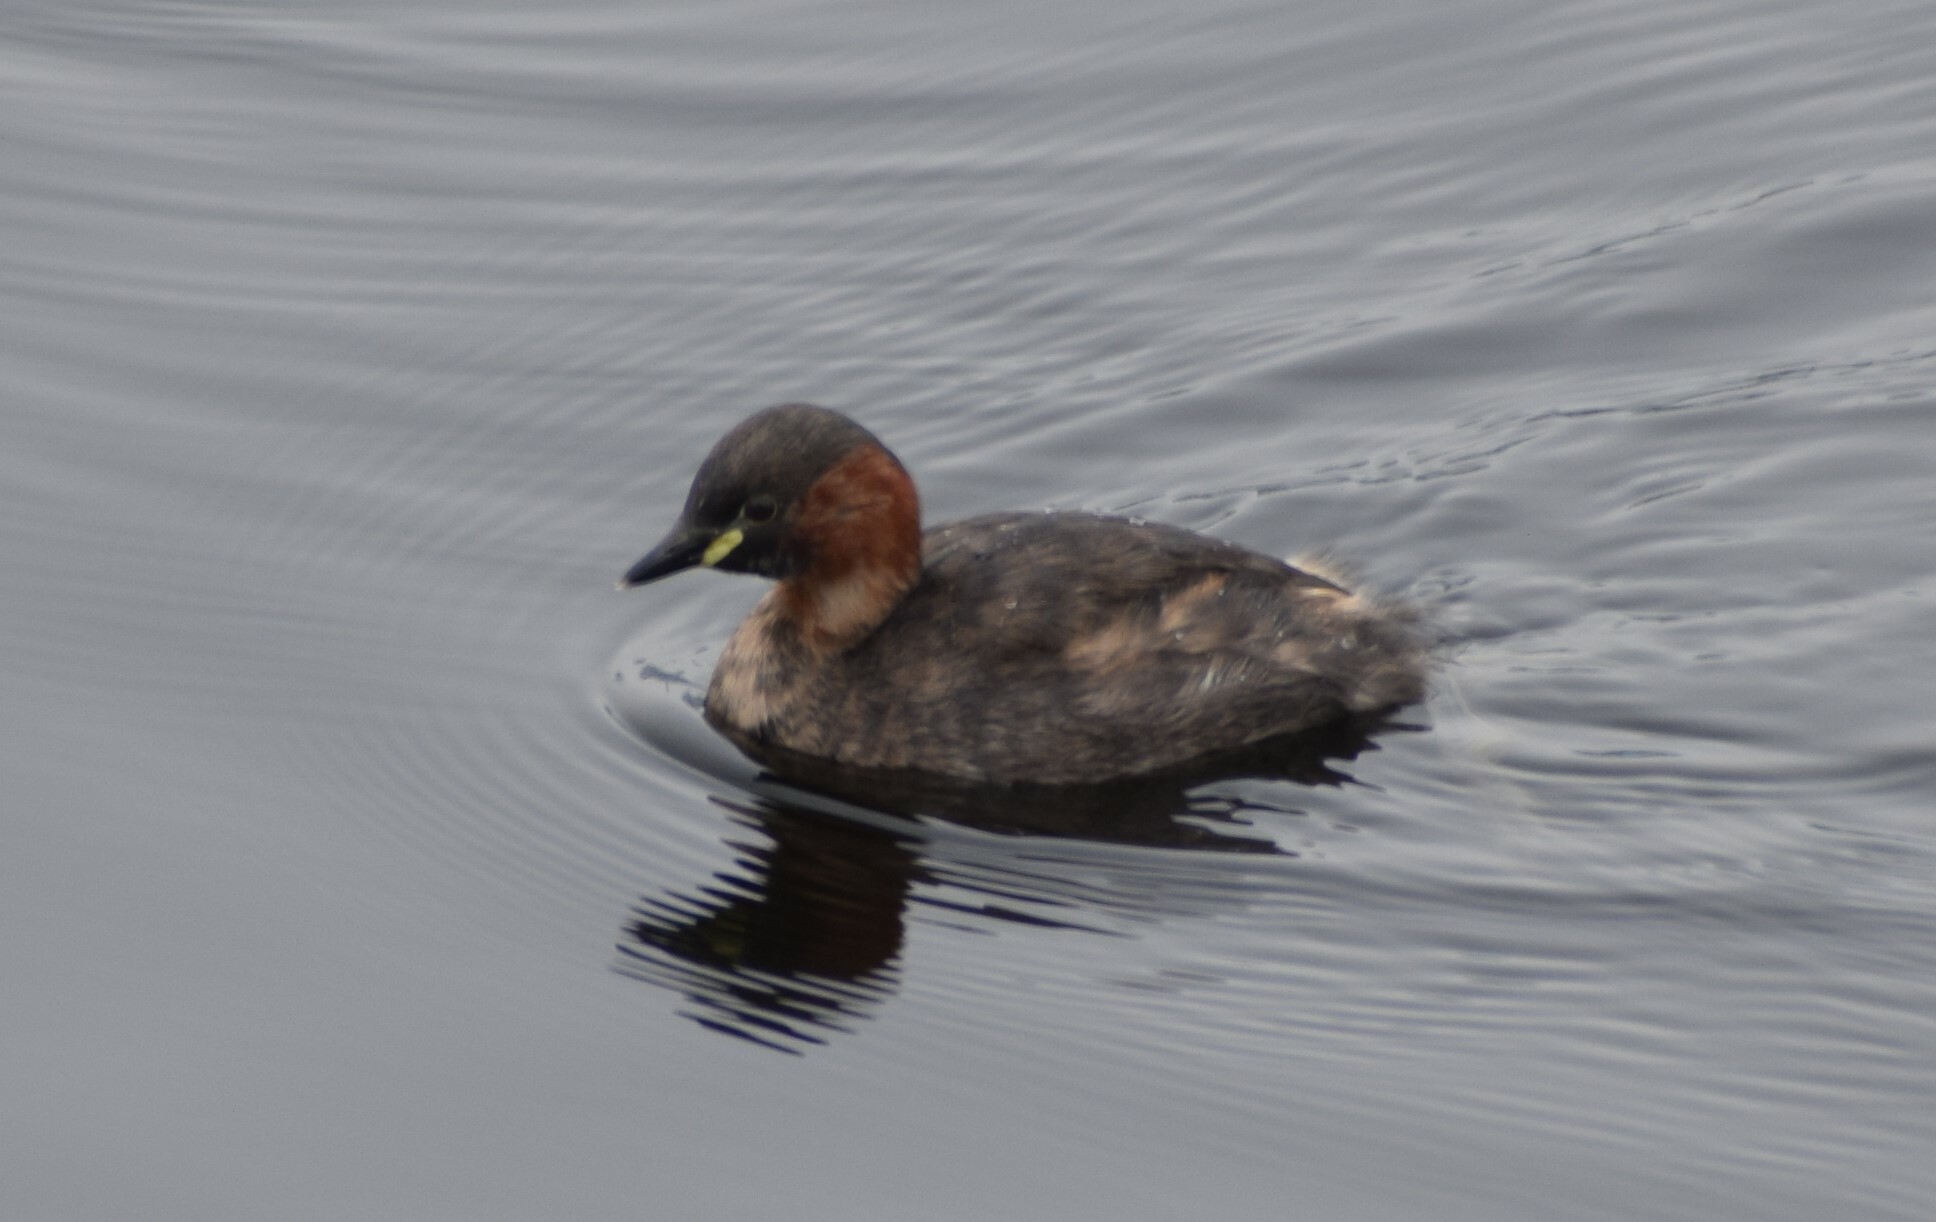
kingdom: Animalia
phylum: Chordata
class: Aves
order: Podicipediformes
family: Podicipedidae
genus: Tachybaptus
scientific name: Tachybaptus ruficollis
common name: Little grebe
